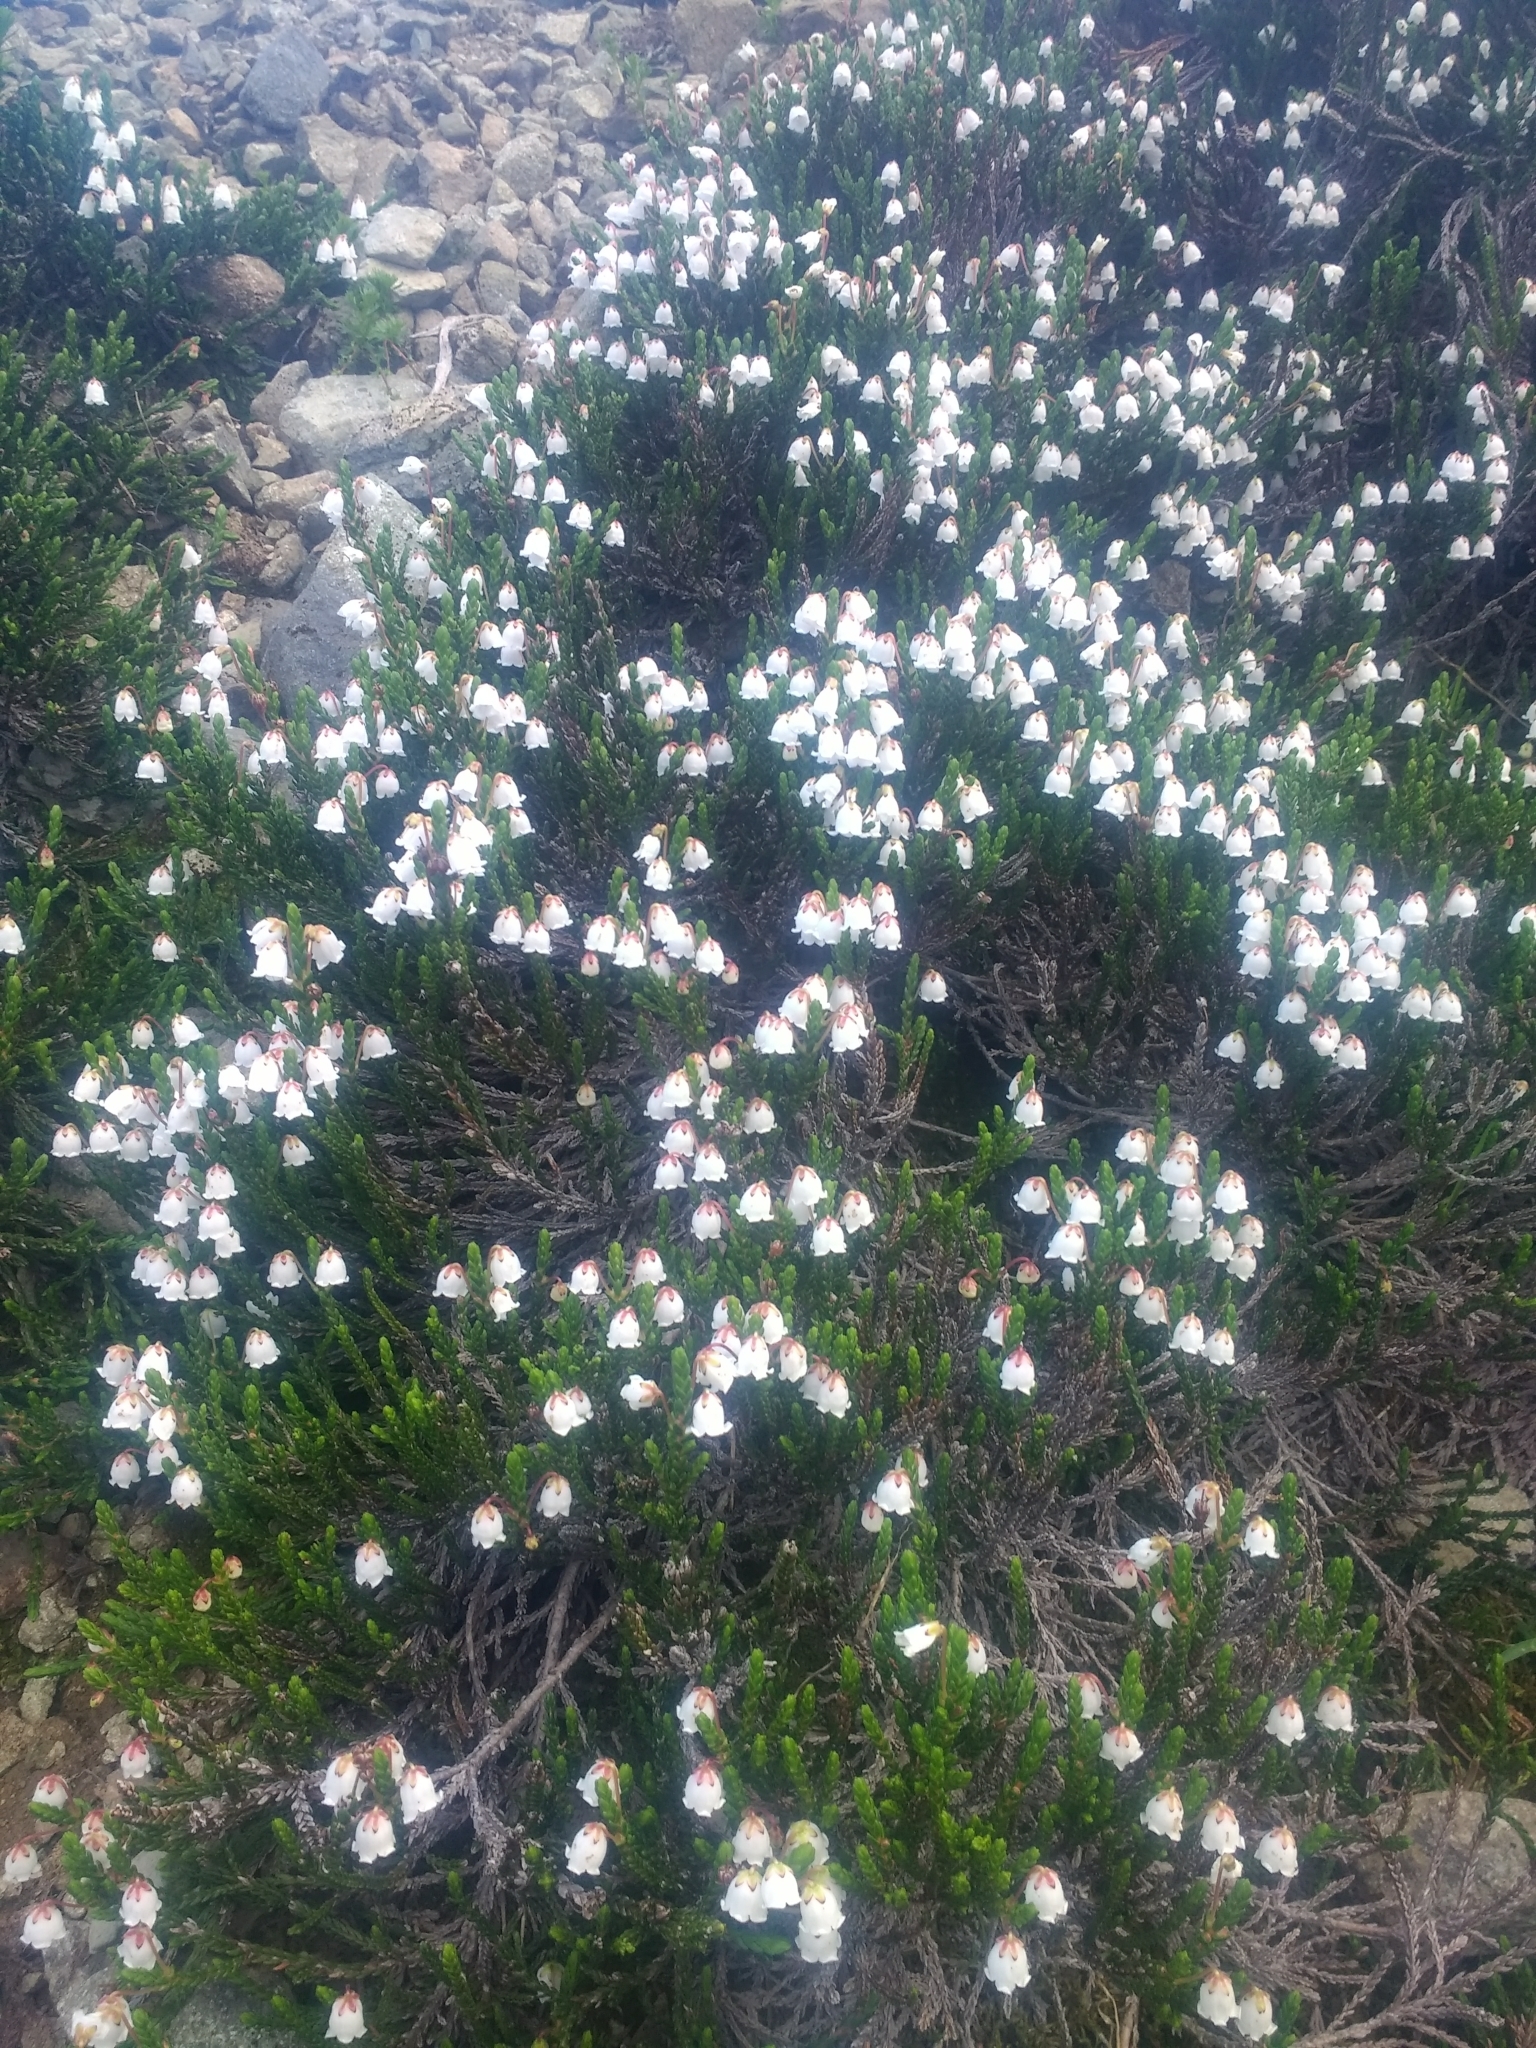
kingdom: Plantae
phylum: Tracheophyta
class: Magnoliopsida
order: Ericales
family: Ericaceae
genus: Cassiope
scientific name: Cassiope mertensiana
